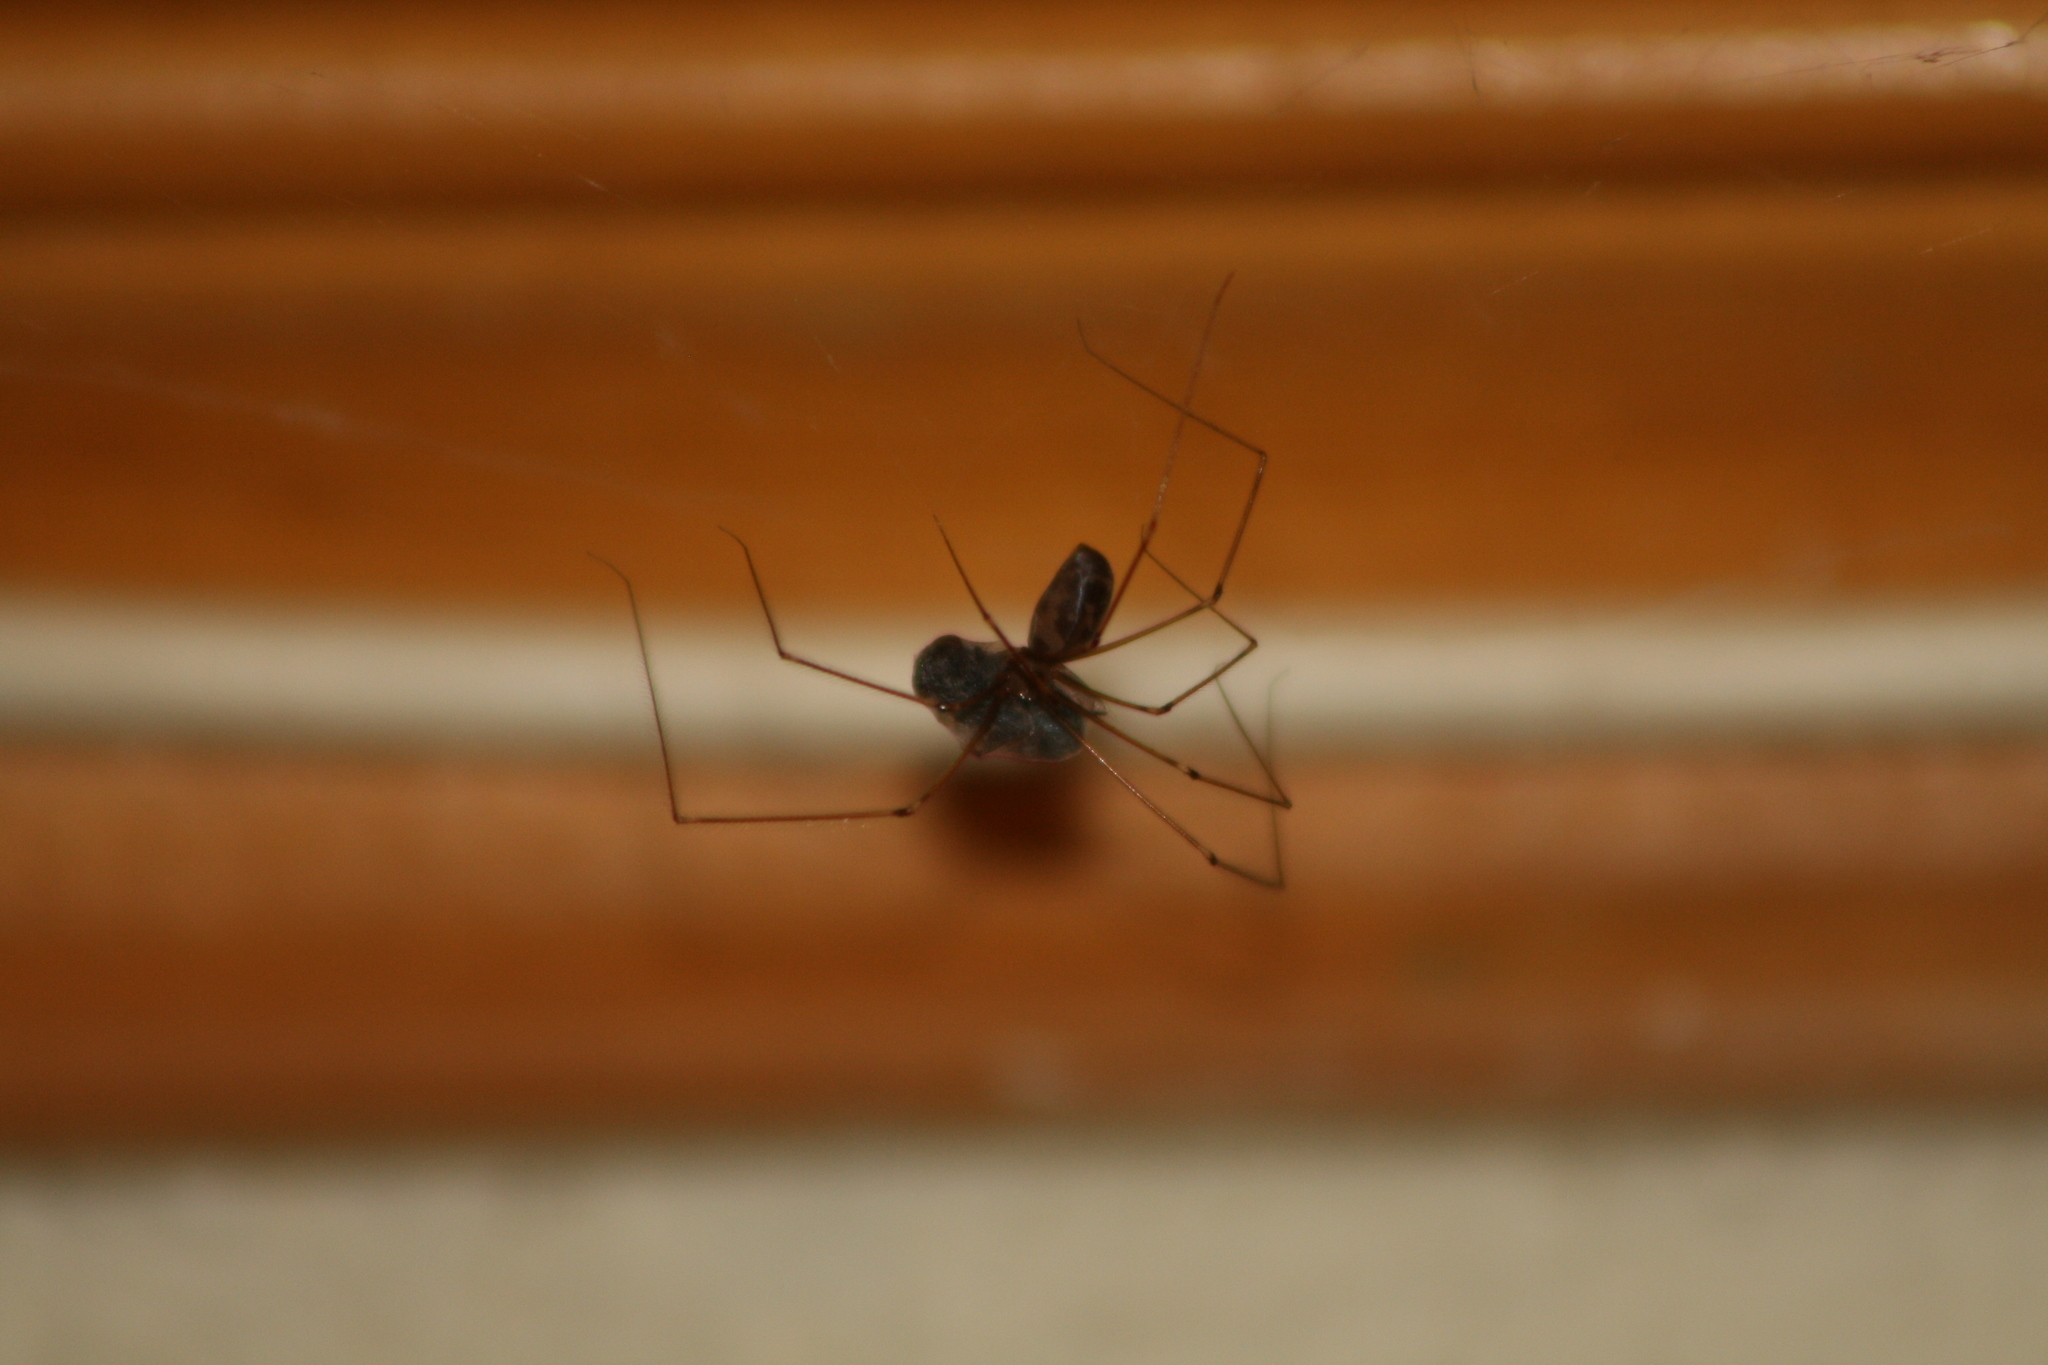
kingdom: Animalia
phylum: Arthropoda
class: Arachnida
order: Araneae
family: Pholcidae
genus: Pholcus
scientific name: Pholcus phalangioides
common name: Longbodied cellar spider
